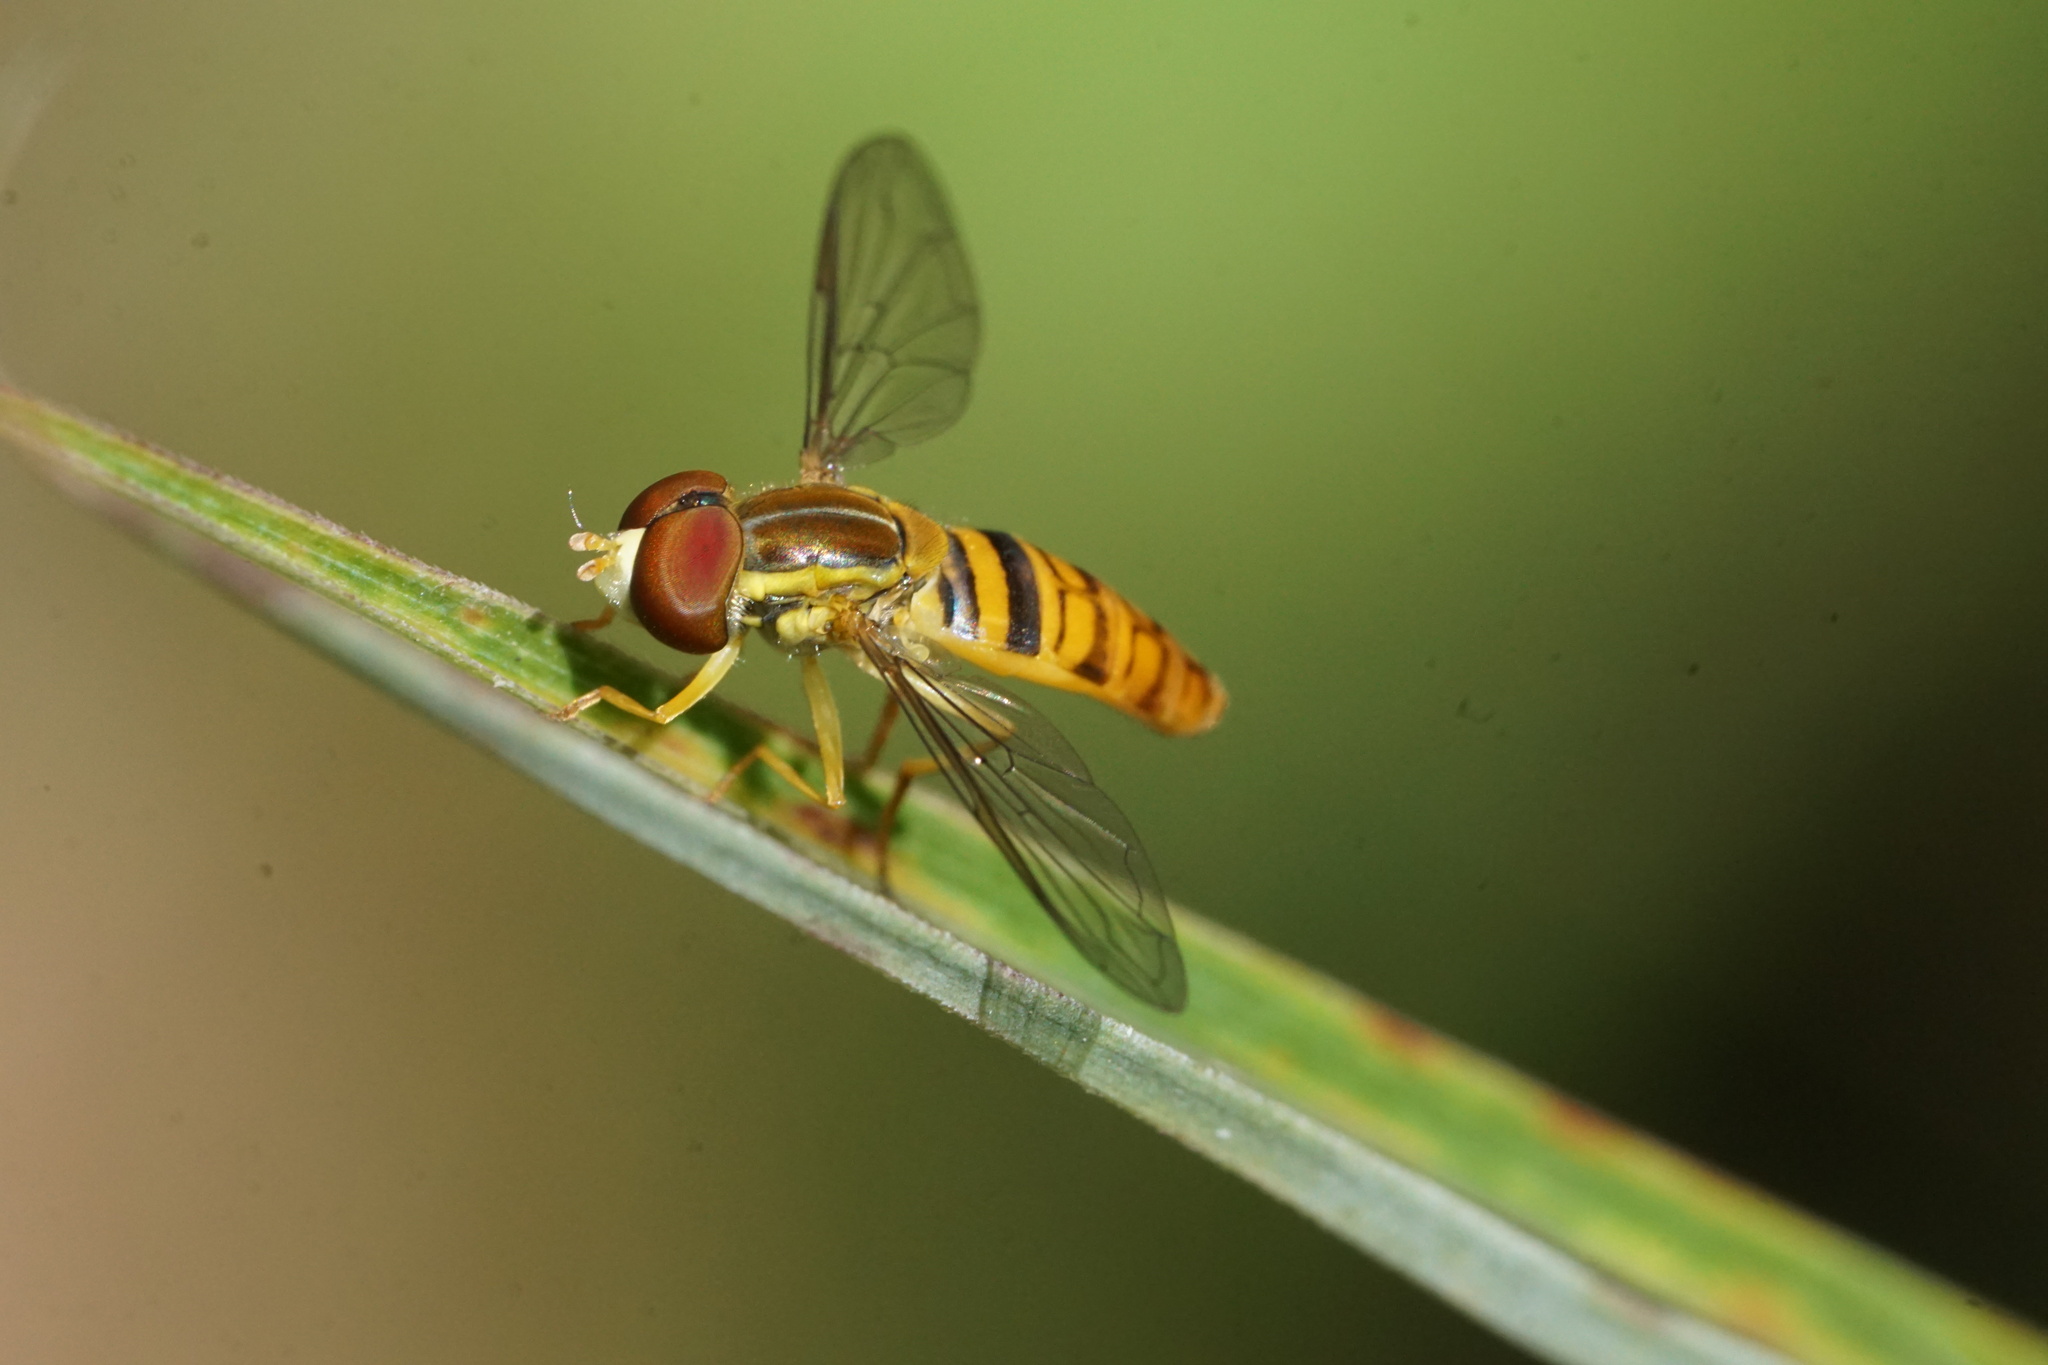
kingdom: Animalia
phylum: Arthropoda
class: Insecta
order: Diptera
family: Syrphidae
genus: Toxomerus
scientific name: Toxomerus politus
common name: Maize calligrapher
